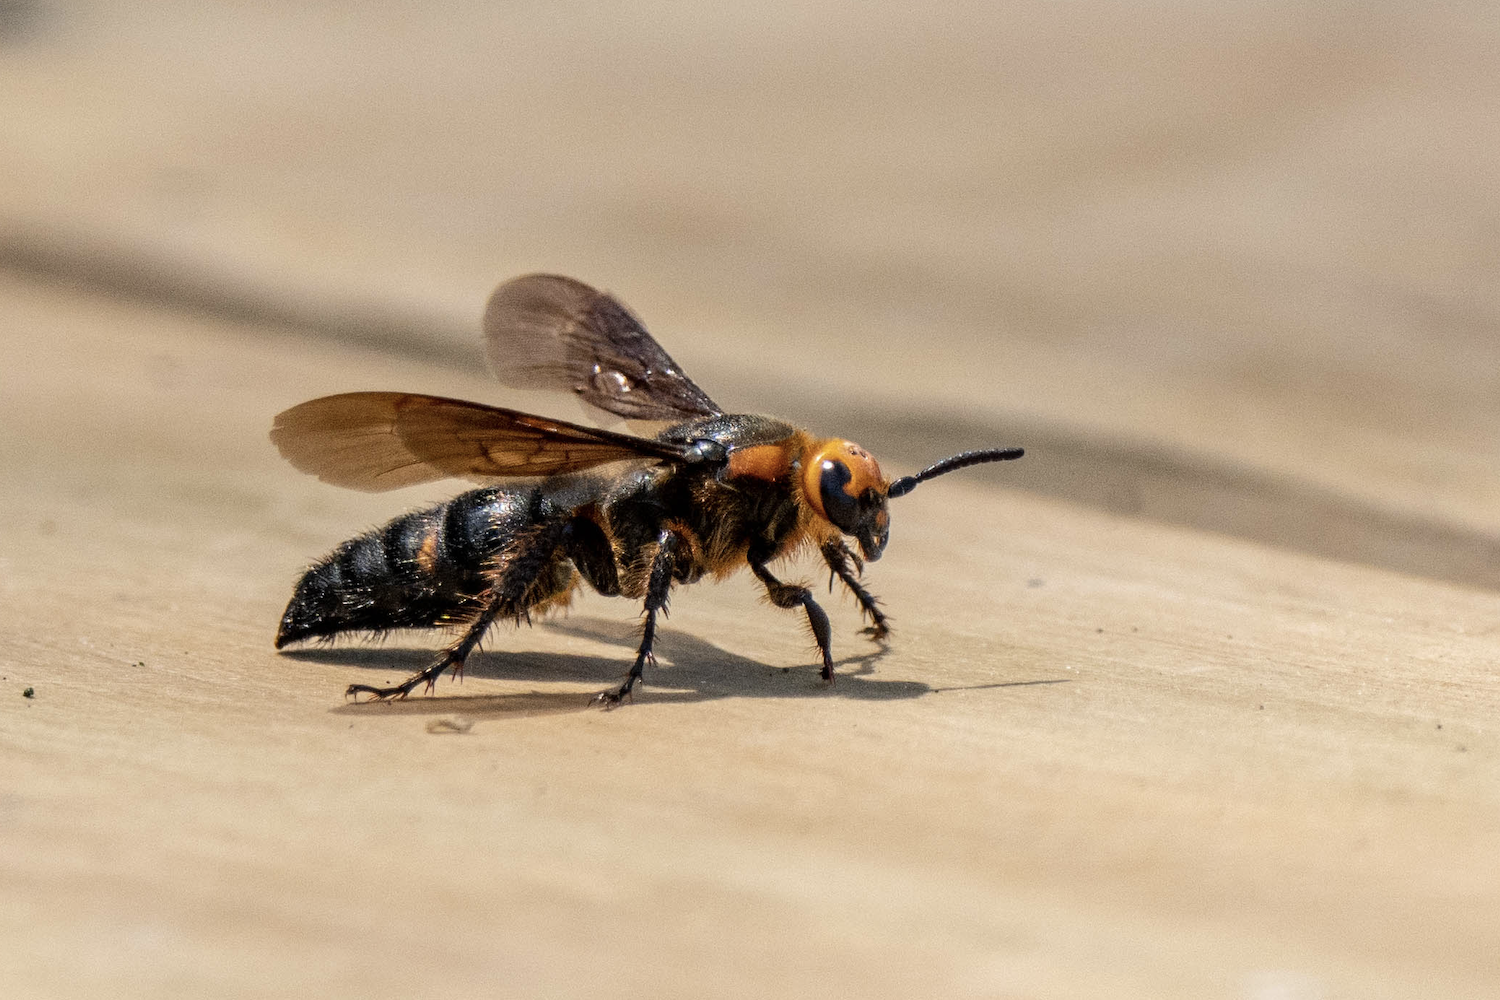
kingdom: Animalia
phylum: Arthropoda
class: Insecta
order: Hymenoptera
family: Scoliidae
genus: Scolia
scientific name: Scolia clypeata
